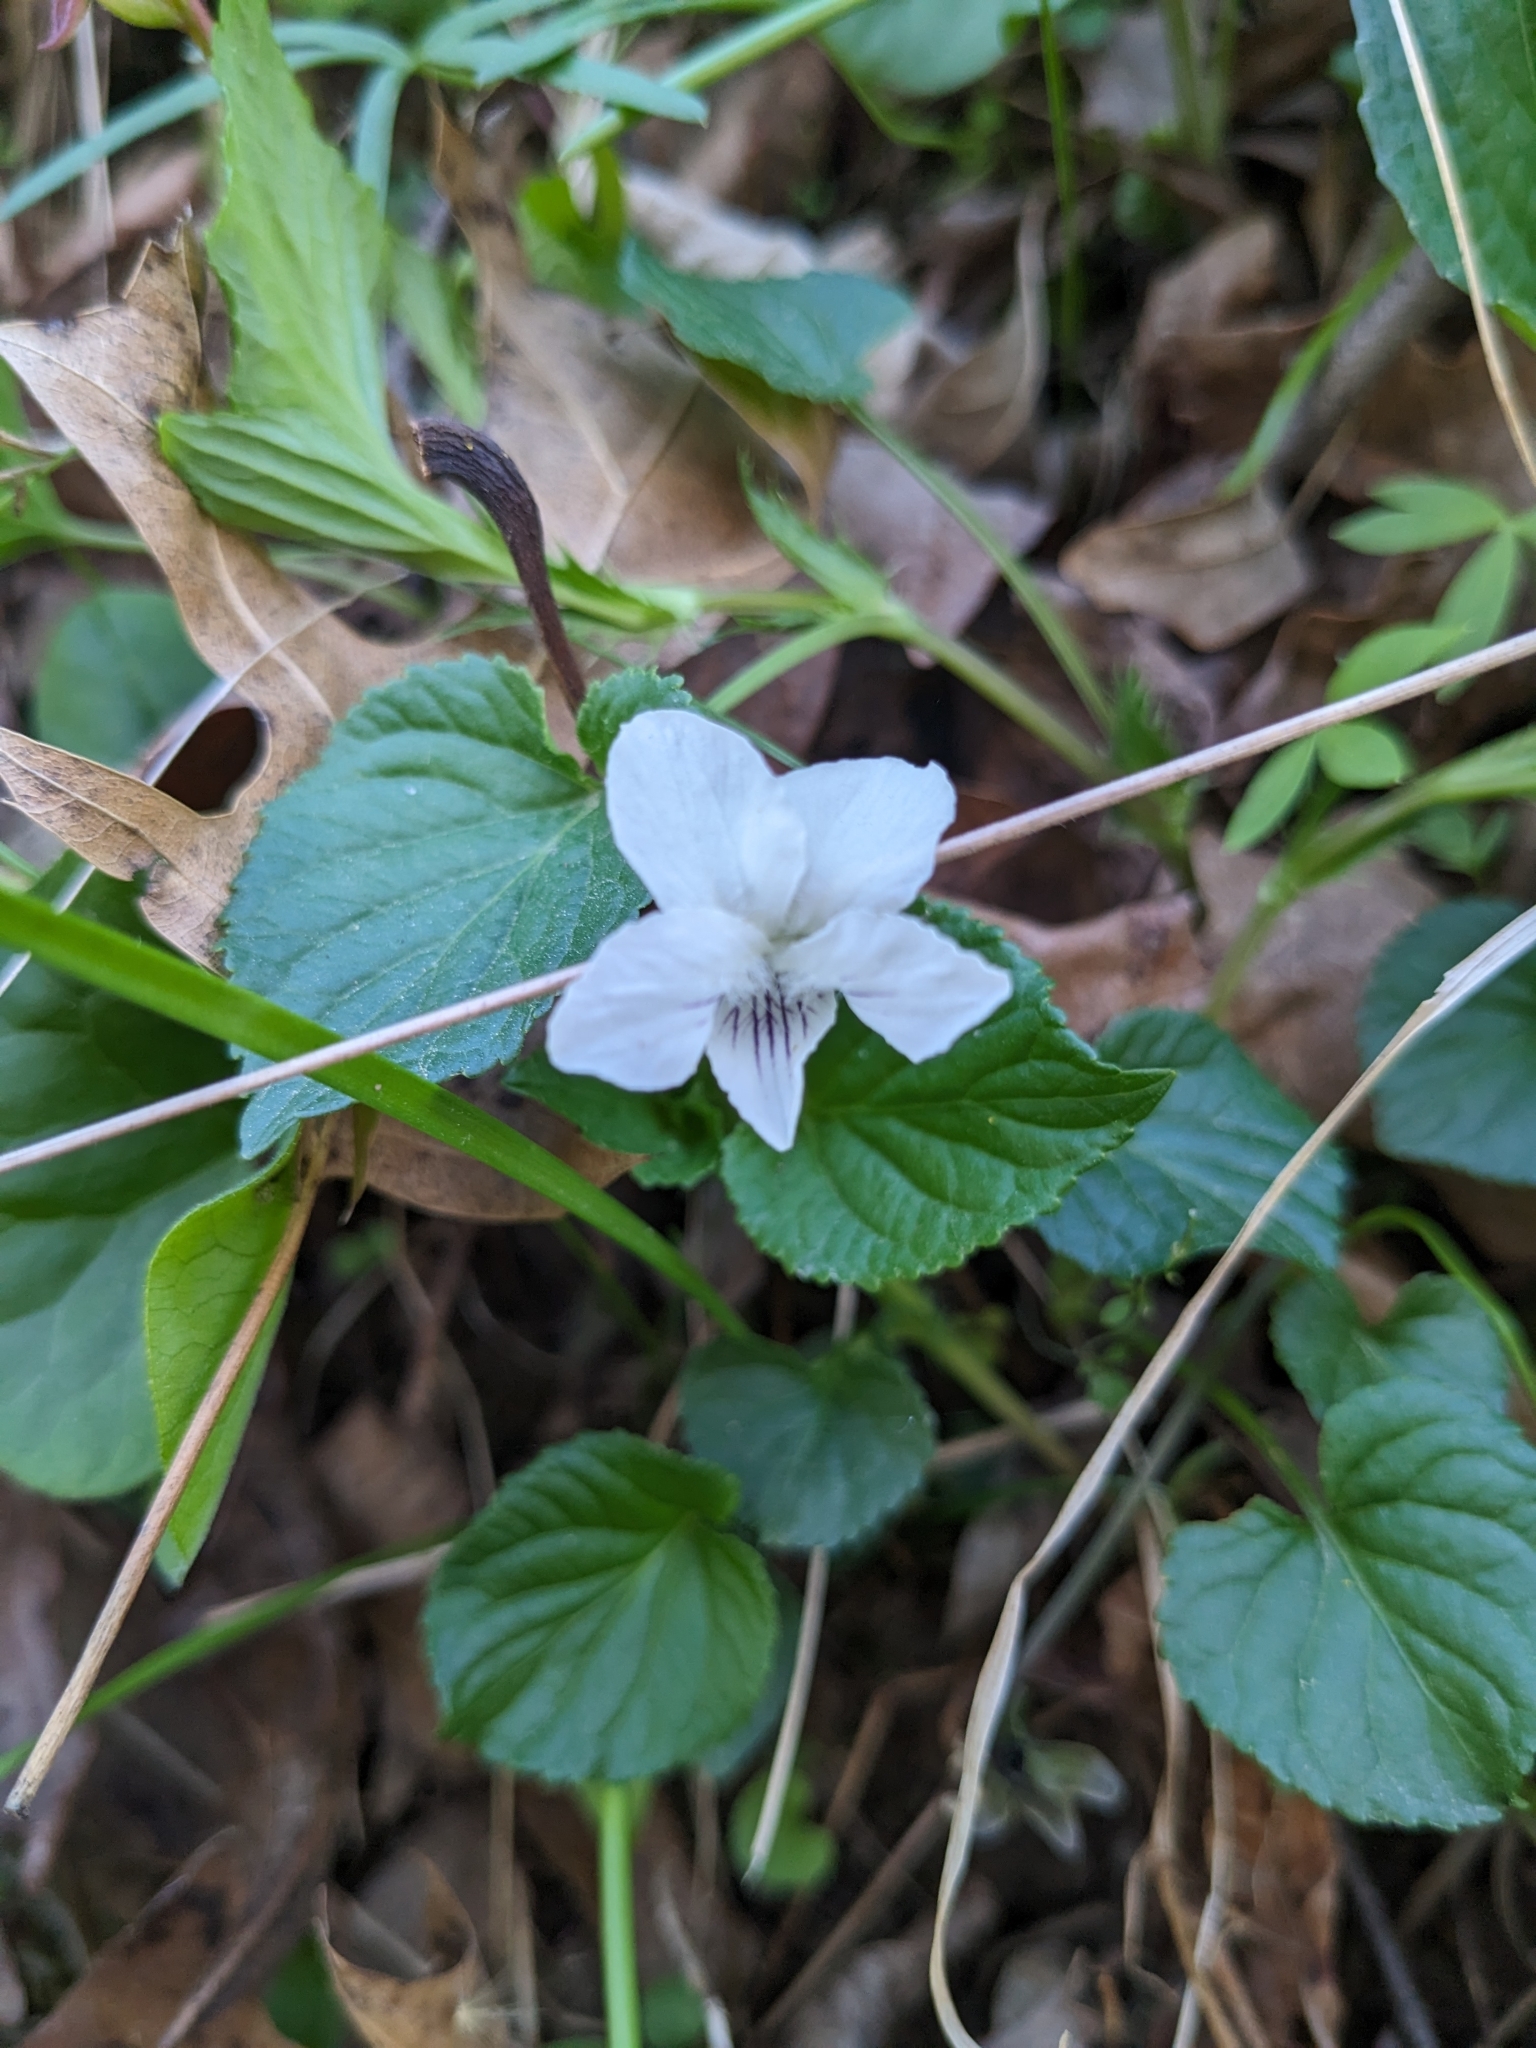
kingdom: Plantae
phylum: Tracheophyta
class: Magnoliopsida
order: Malpighiales
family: Violaceae
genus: Viola
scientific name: Viola striata
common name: Cream violet
